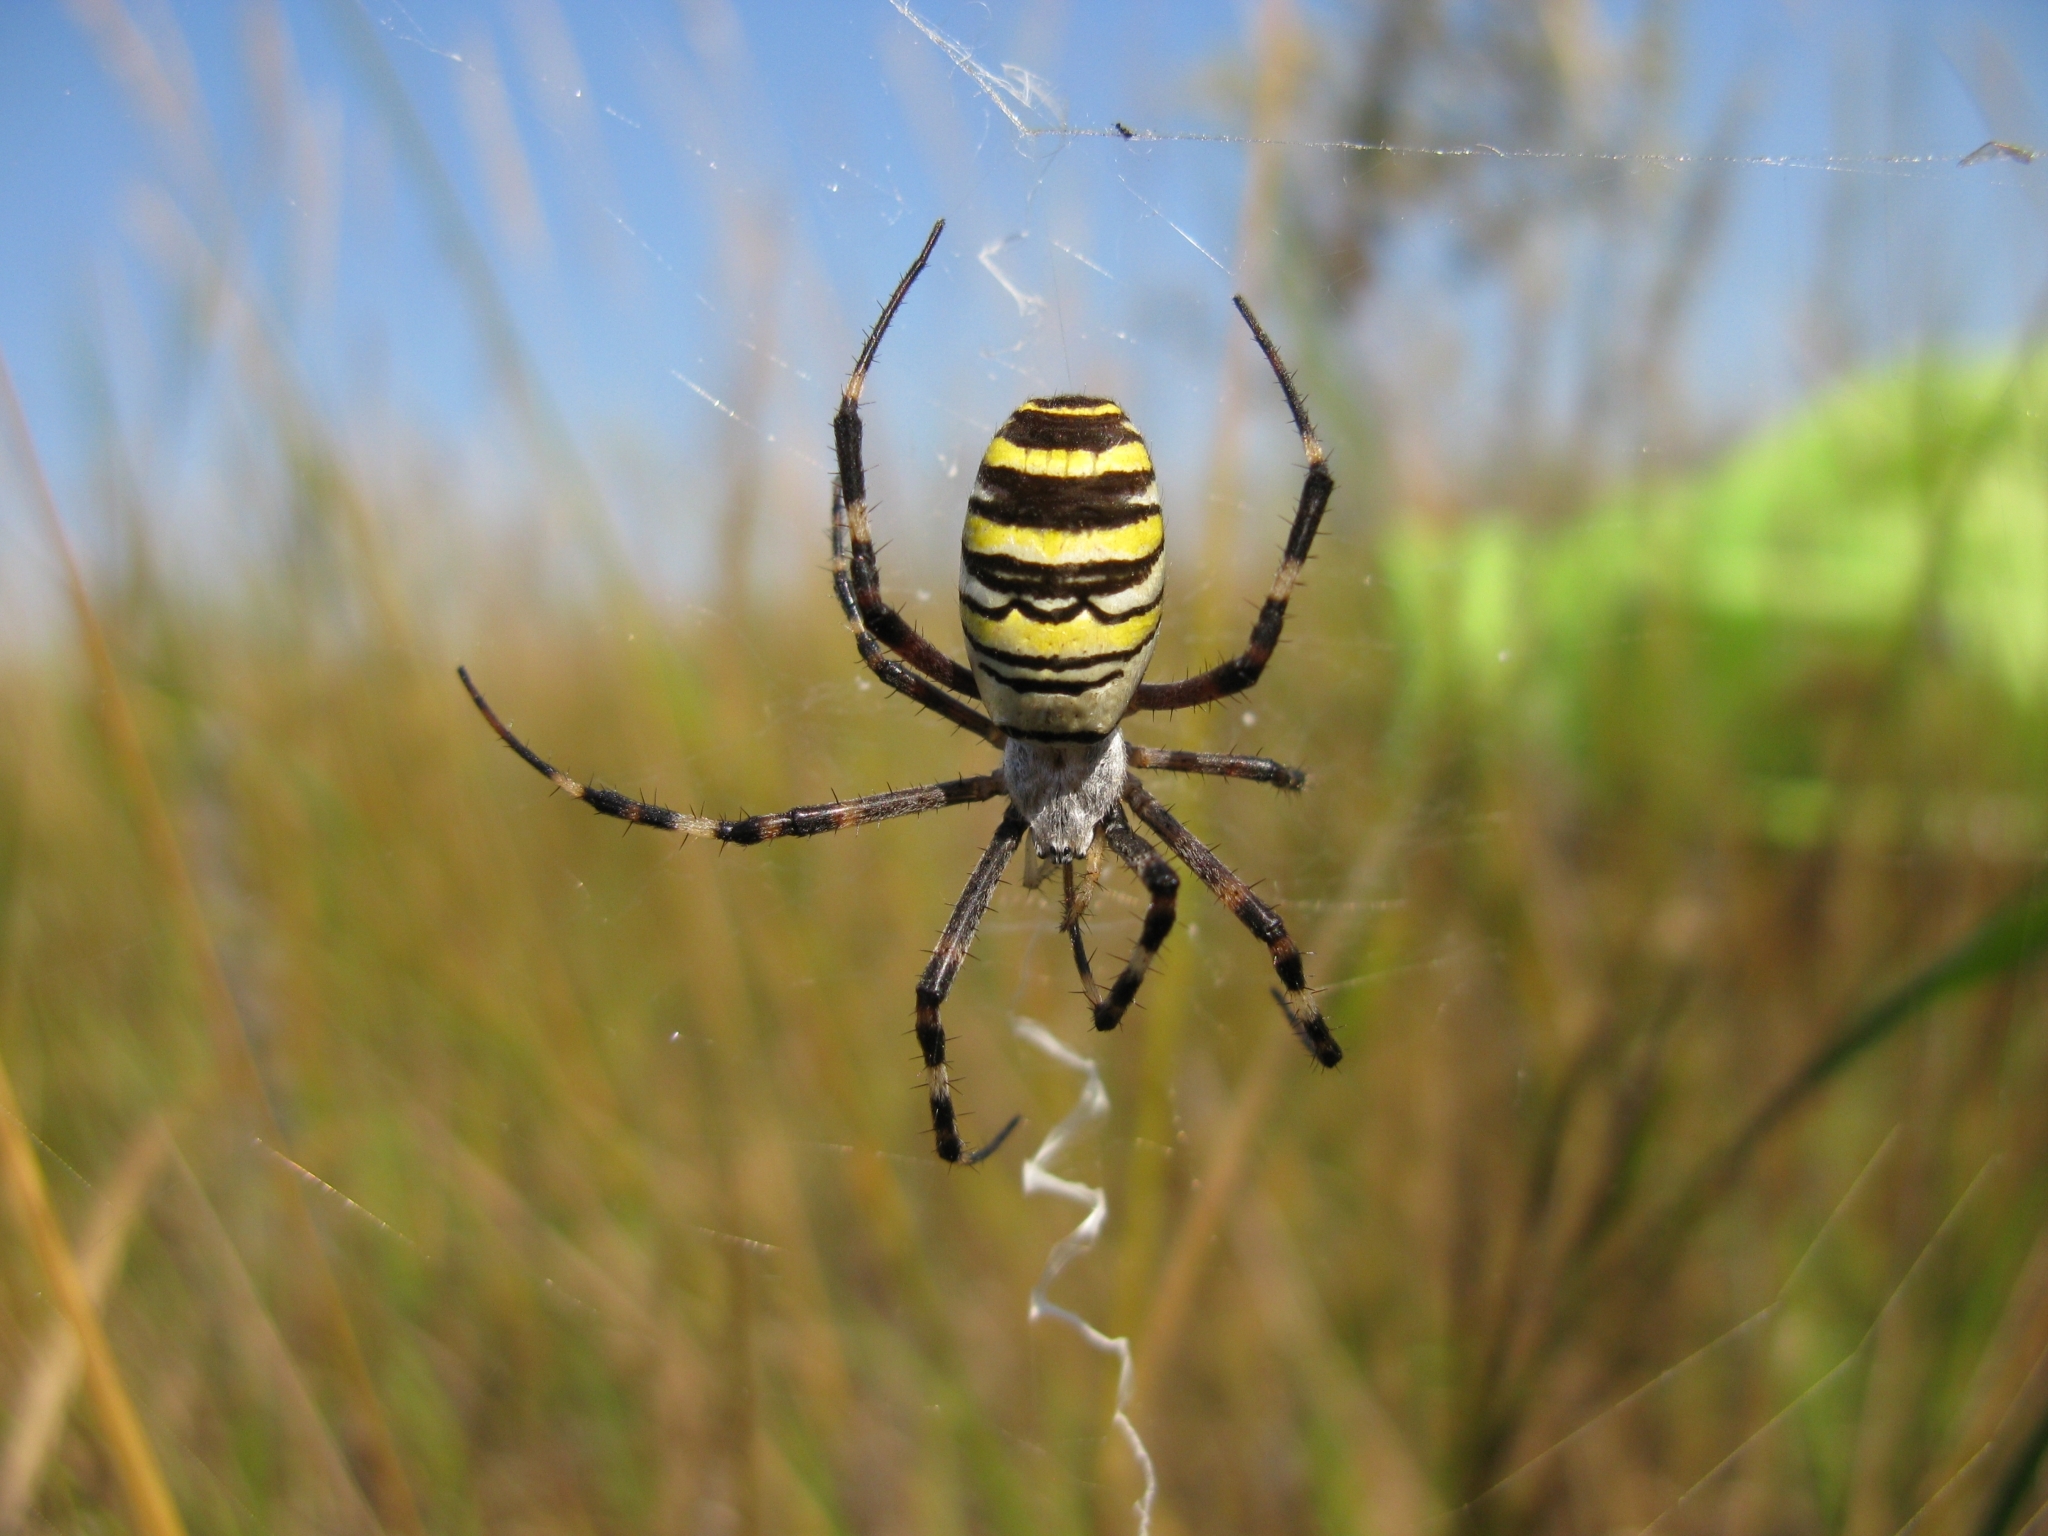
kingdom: Animalia
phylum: Arthropoda
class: Arachnida
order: Araneae
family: Araneidae
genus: Argiope
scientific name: Argiope bruennichi
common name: Wasp spider
